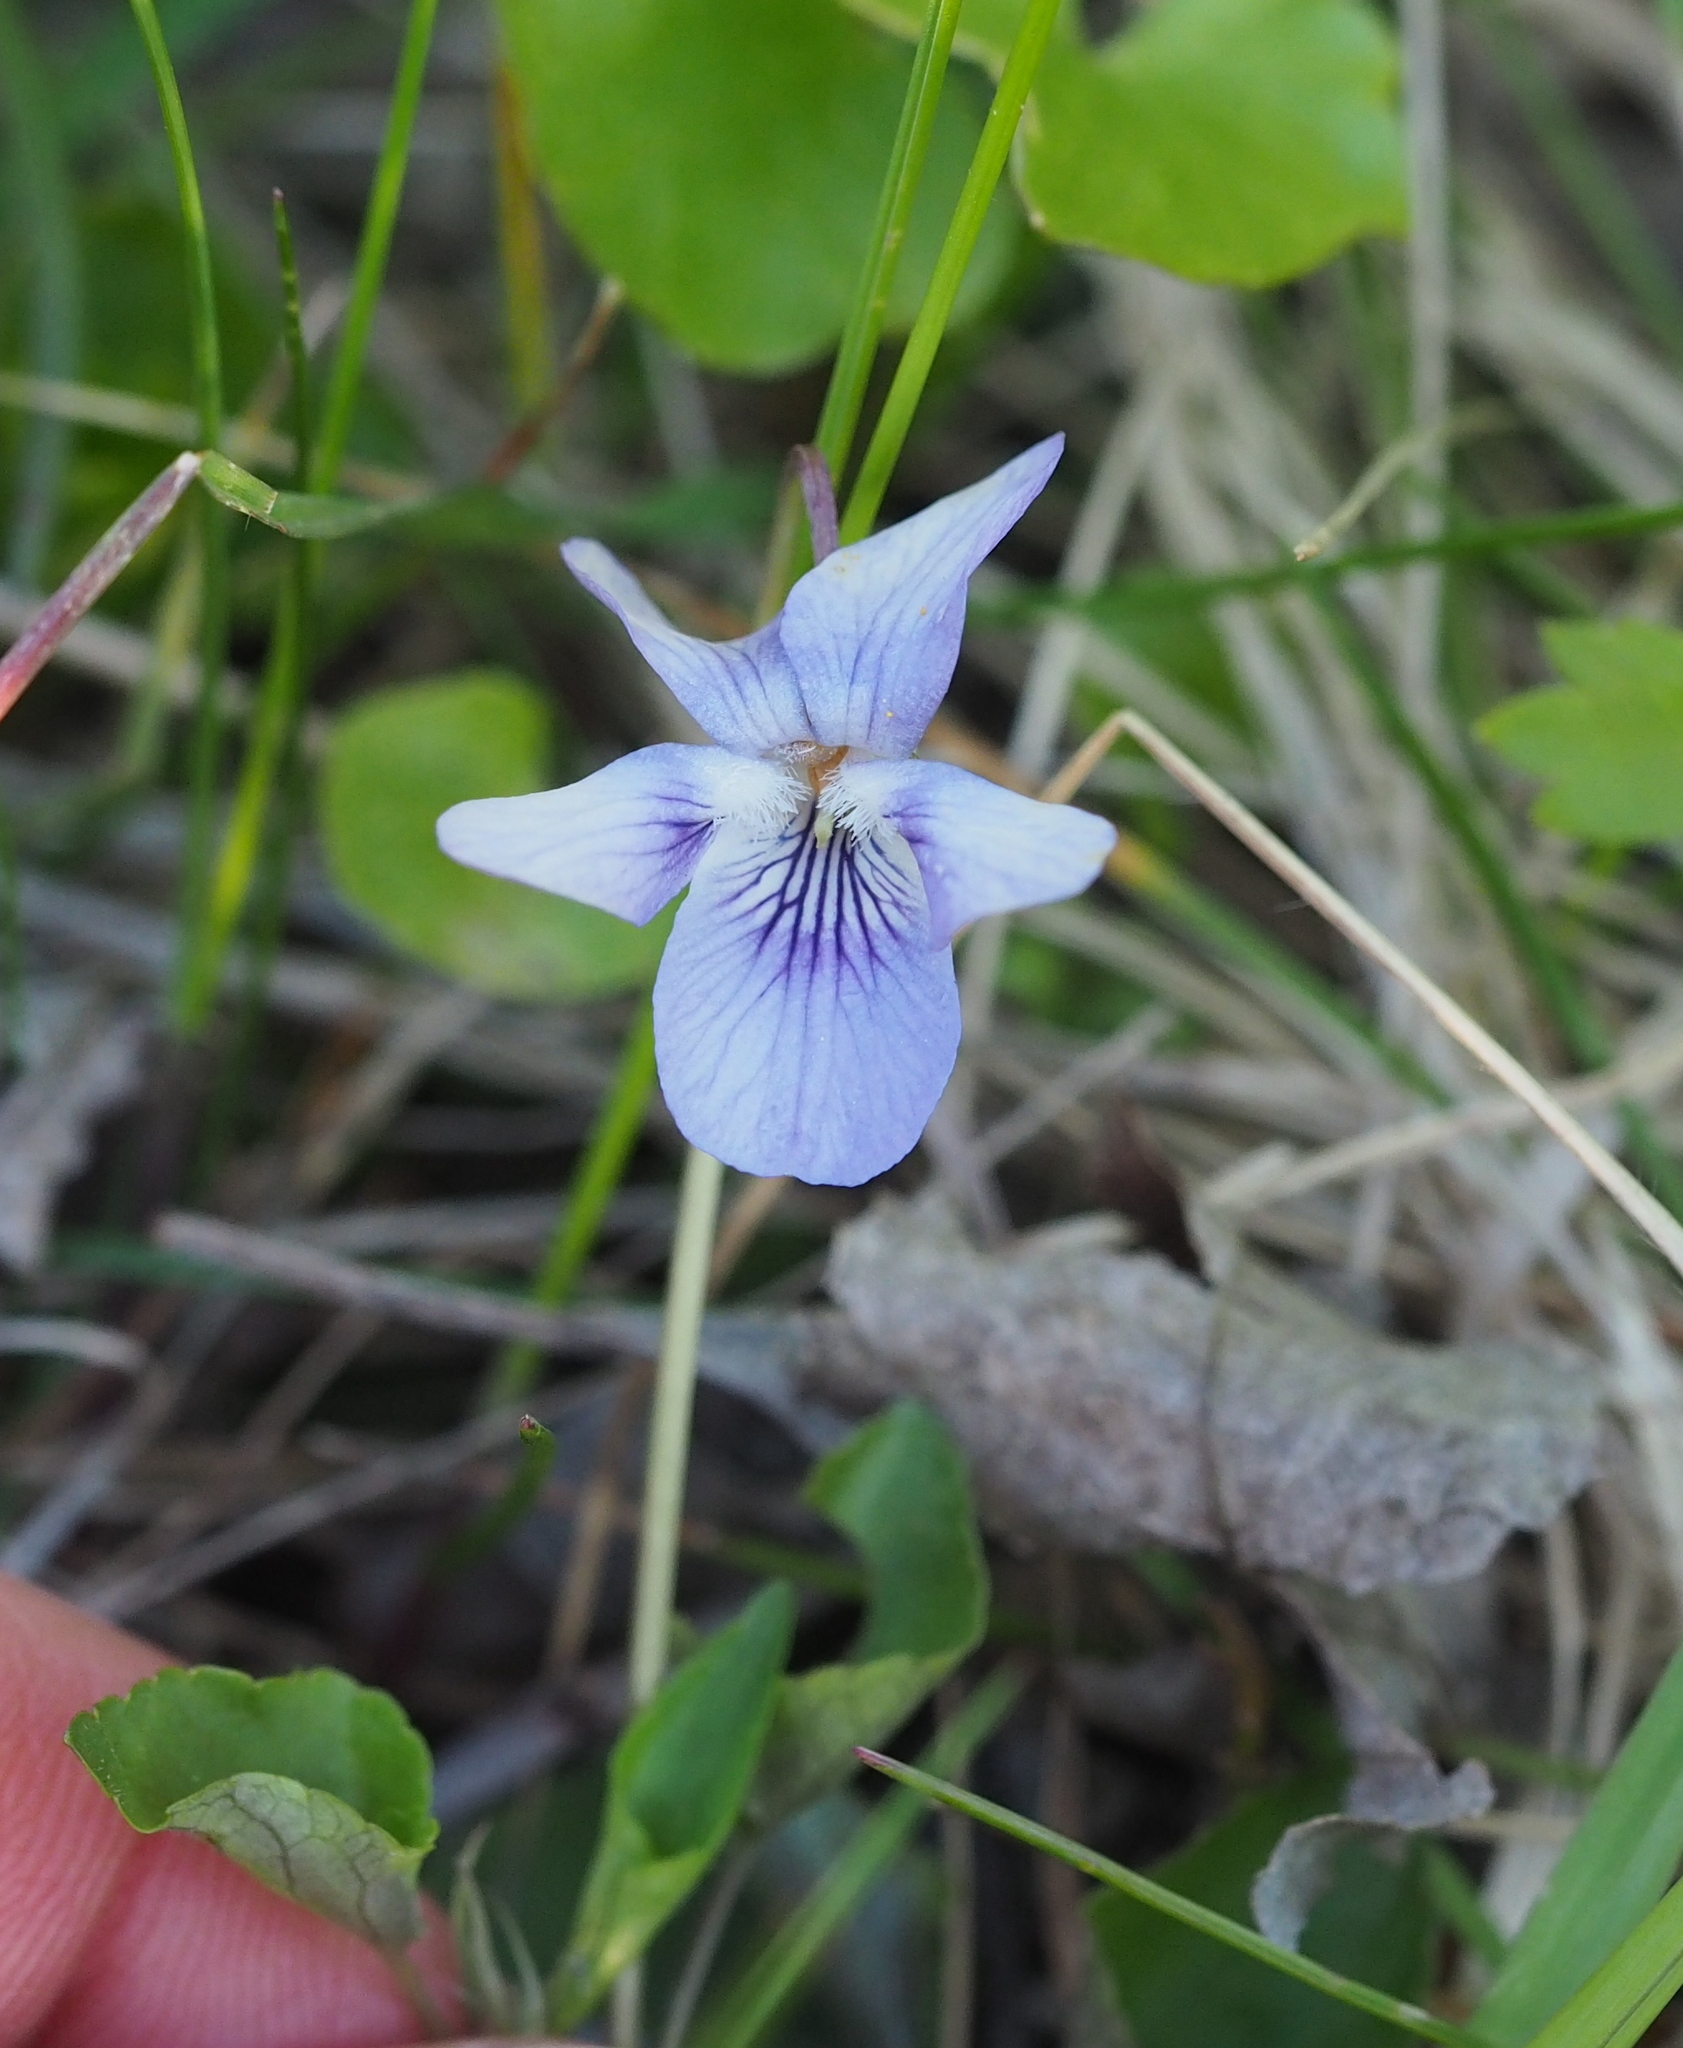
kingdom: Plantae
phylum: Tracheophyta
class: Magnoliopsida
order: Malpighiales
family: Violaceae
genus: Viola
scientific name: Viola riviniana
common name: Common dog-violet
